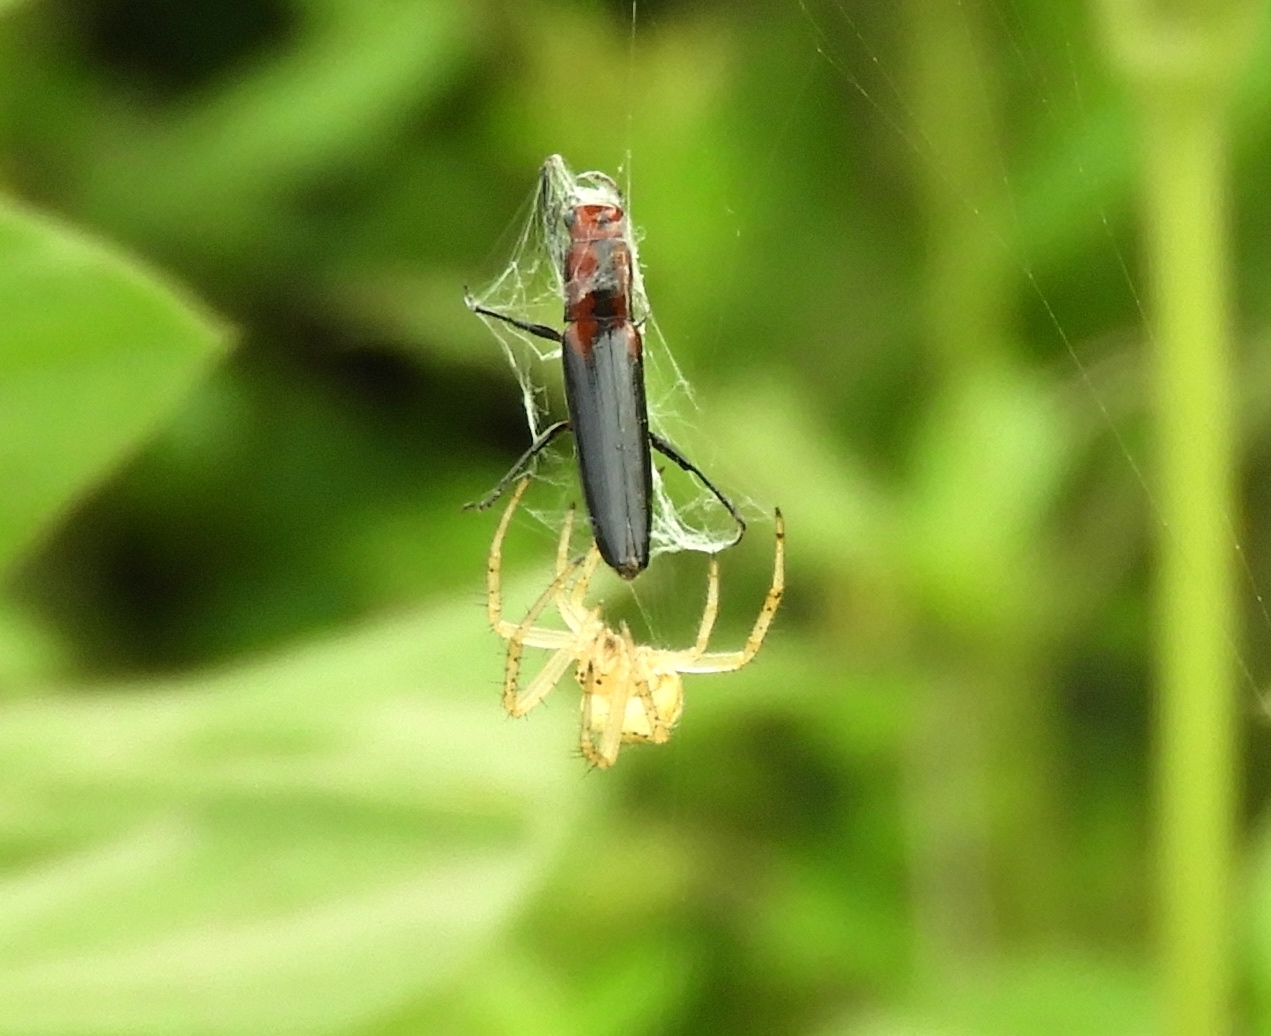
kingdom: Animalia
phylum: Arthropoda
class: Arachnida
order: Araneae
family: Araneidae
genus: Neoscona
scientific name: Neoscona
